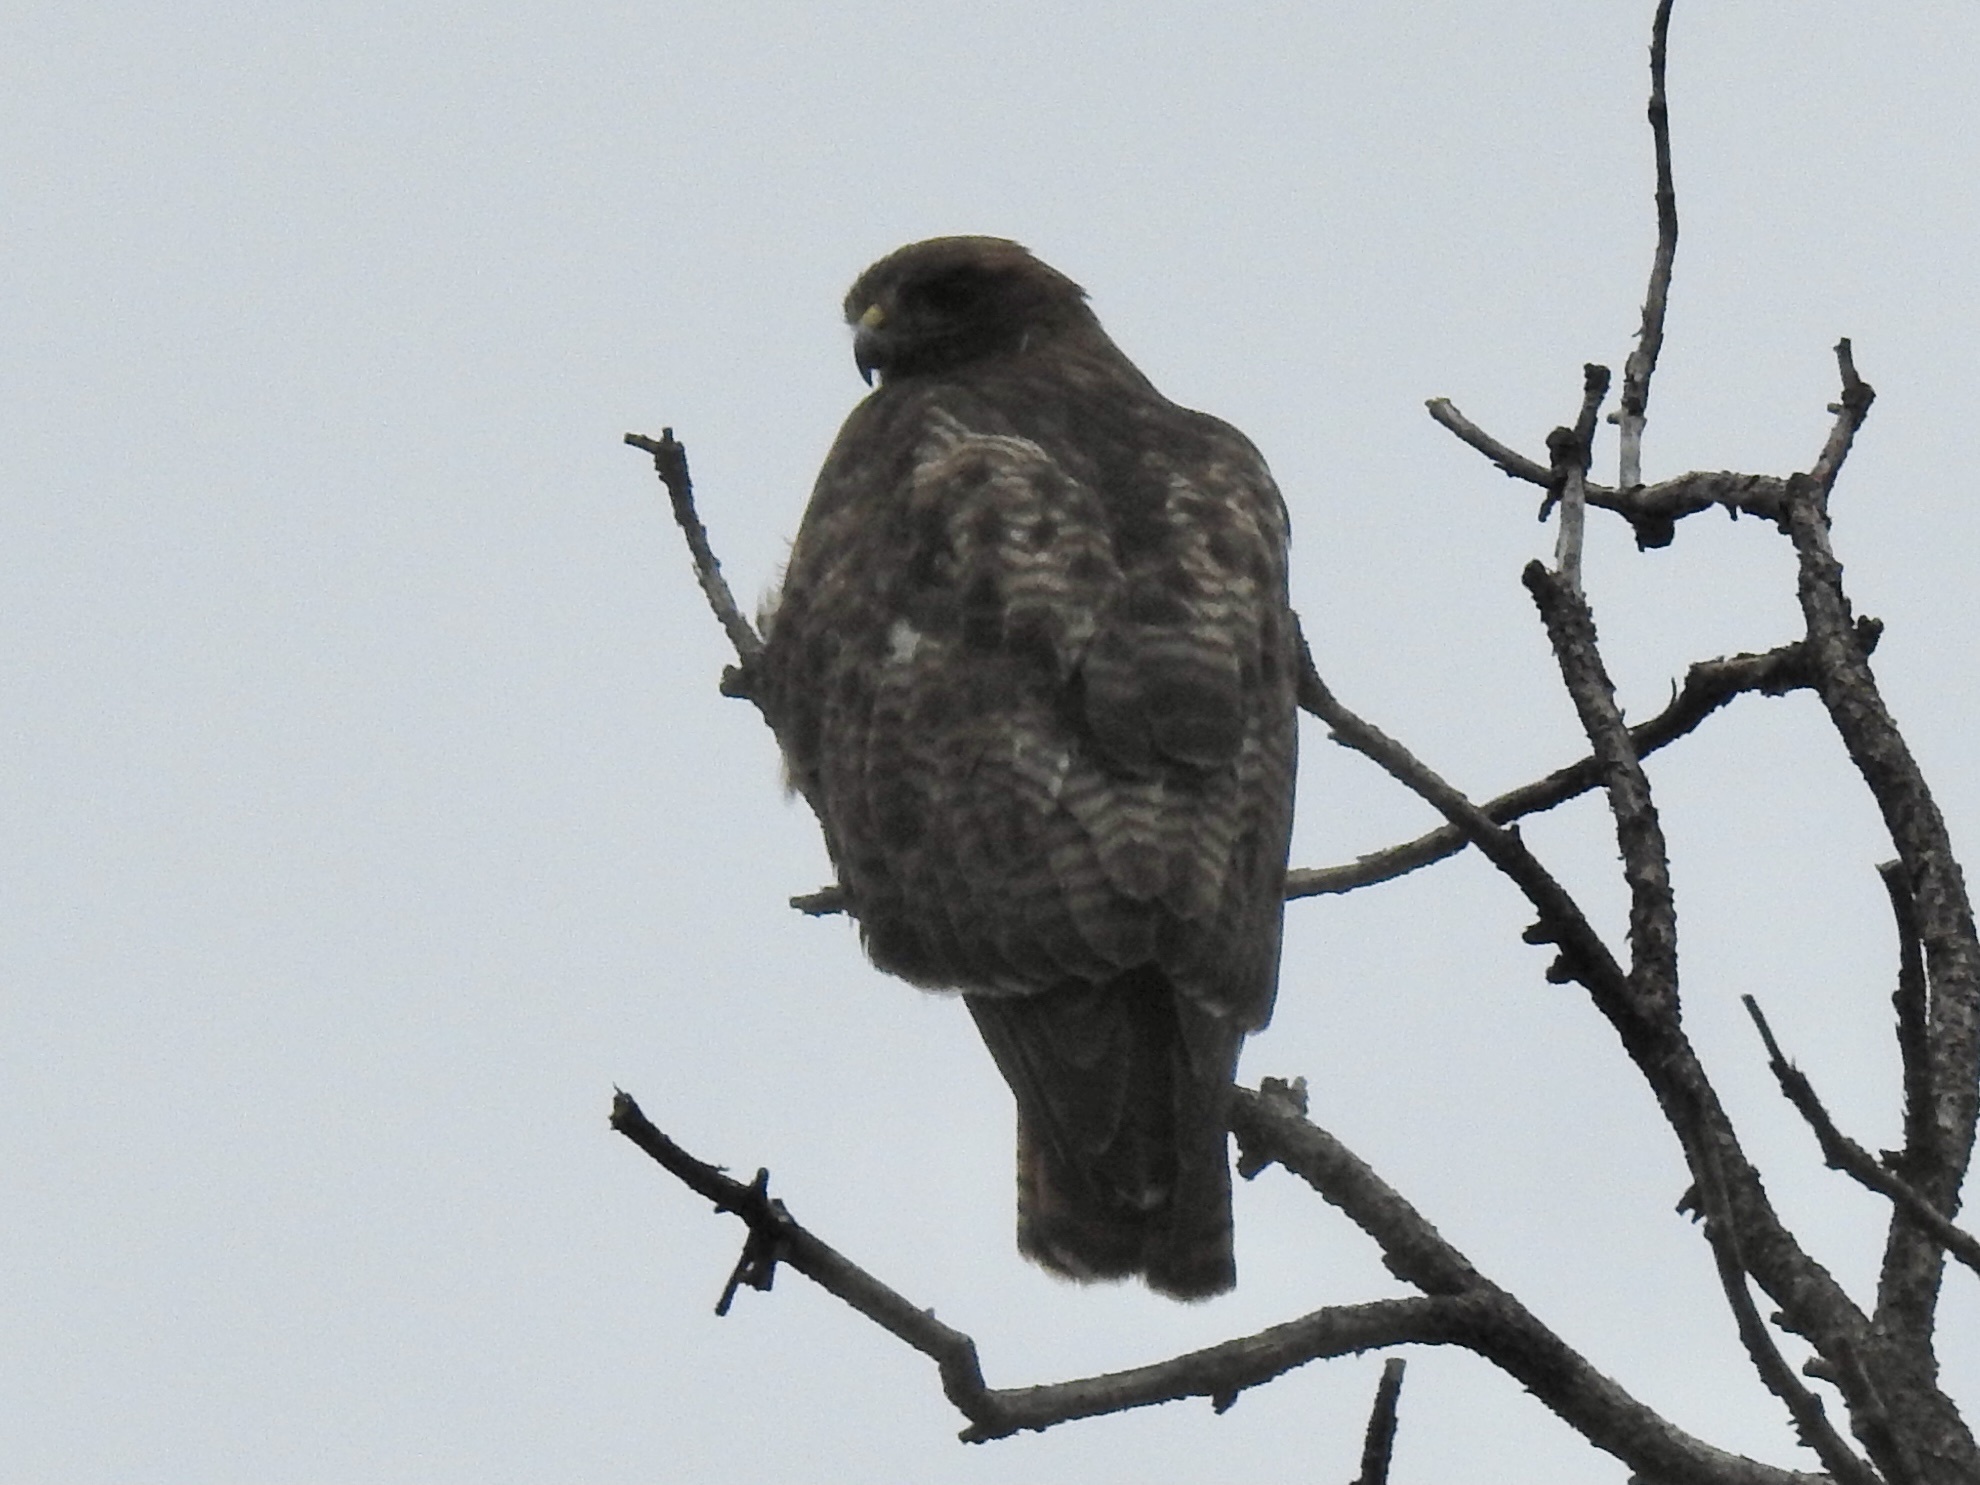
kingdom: Animalia
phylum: Chordata
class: Aves
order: Accipitriformes
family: Accipitridae
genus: Buteo
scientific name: Buteo jamaicensis
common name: Red-tailed hawk
